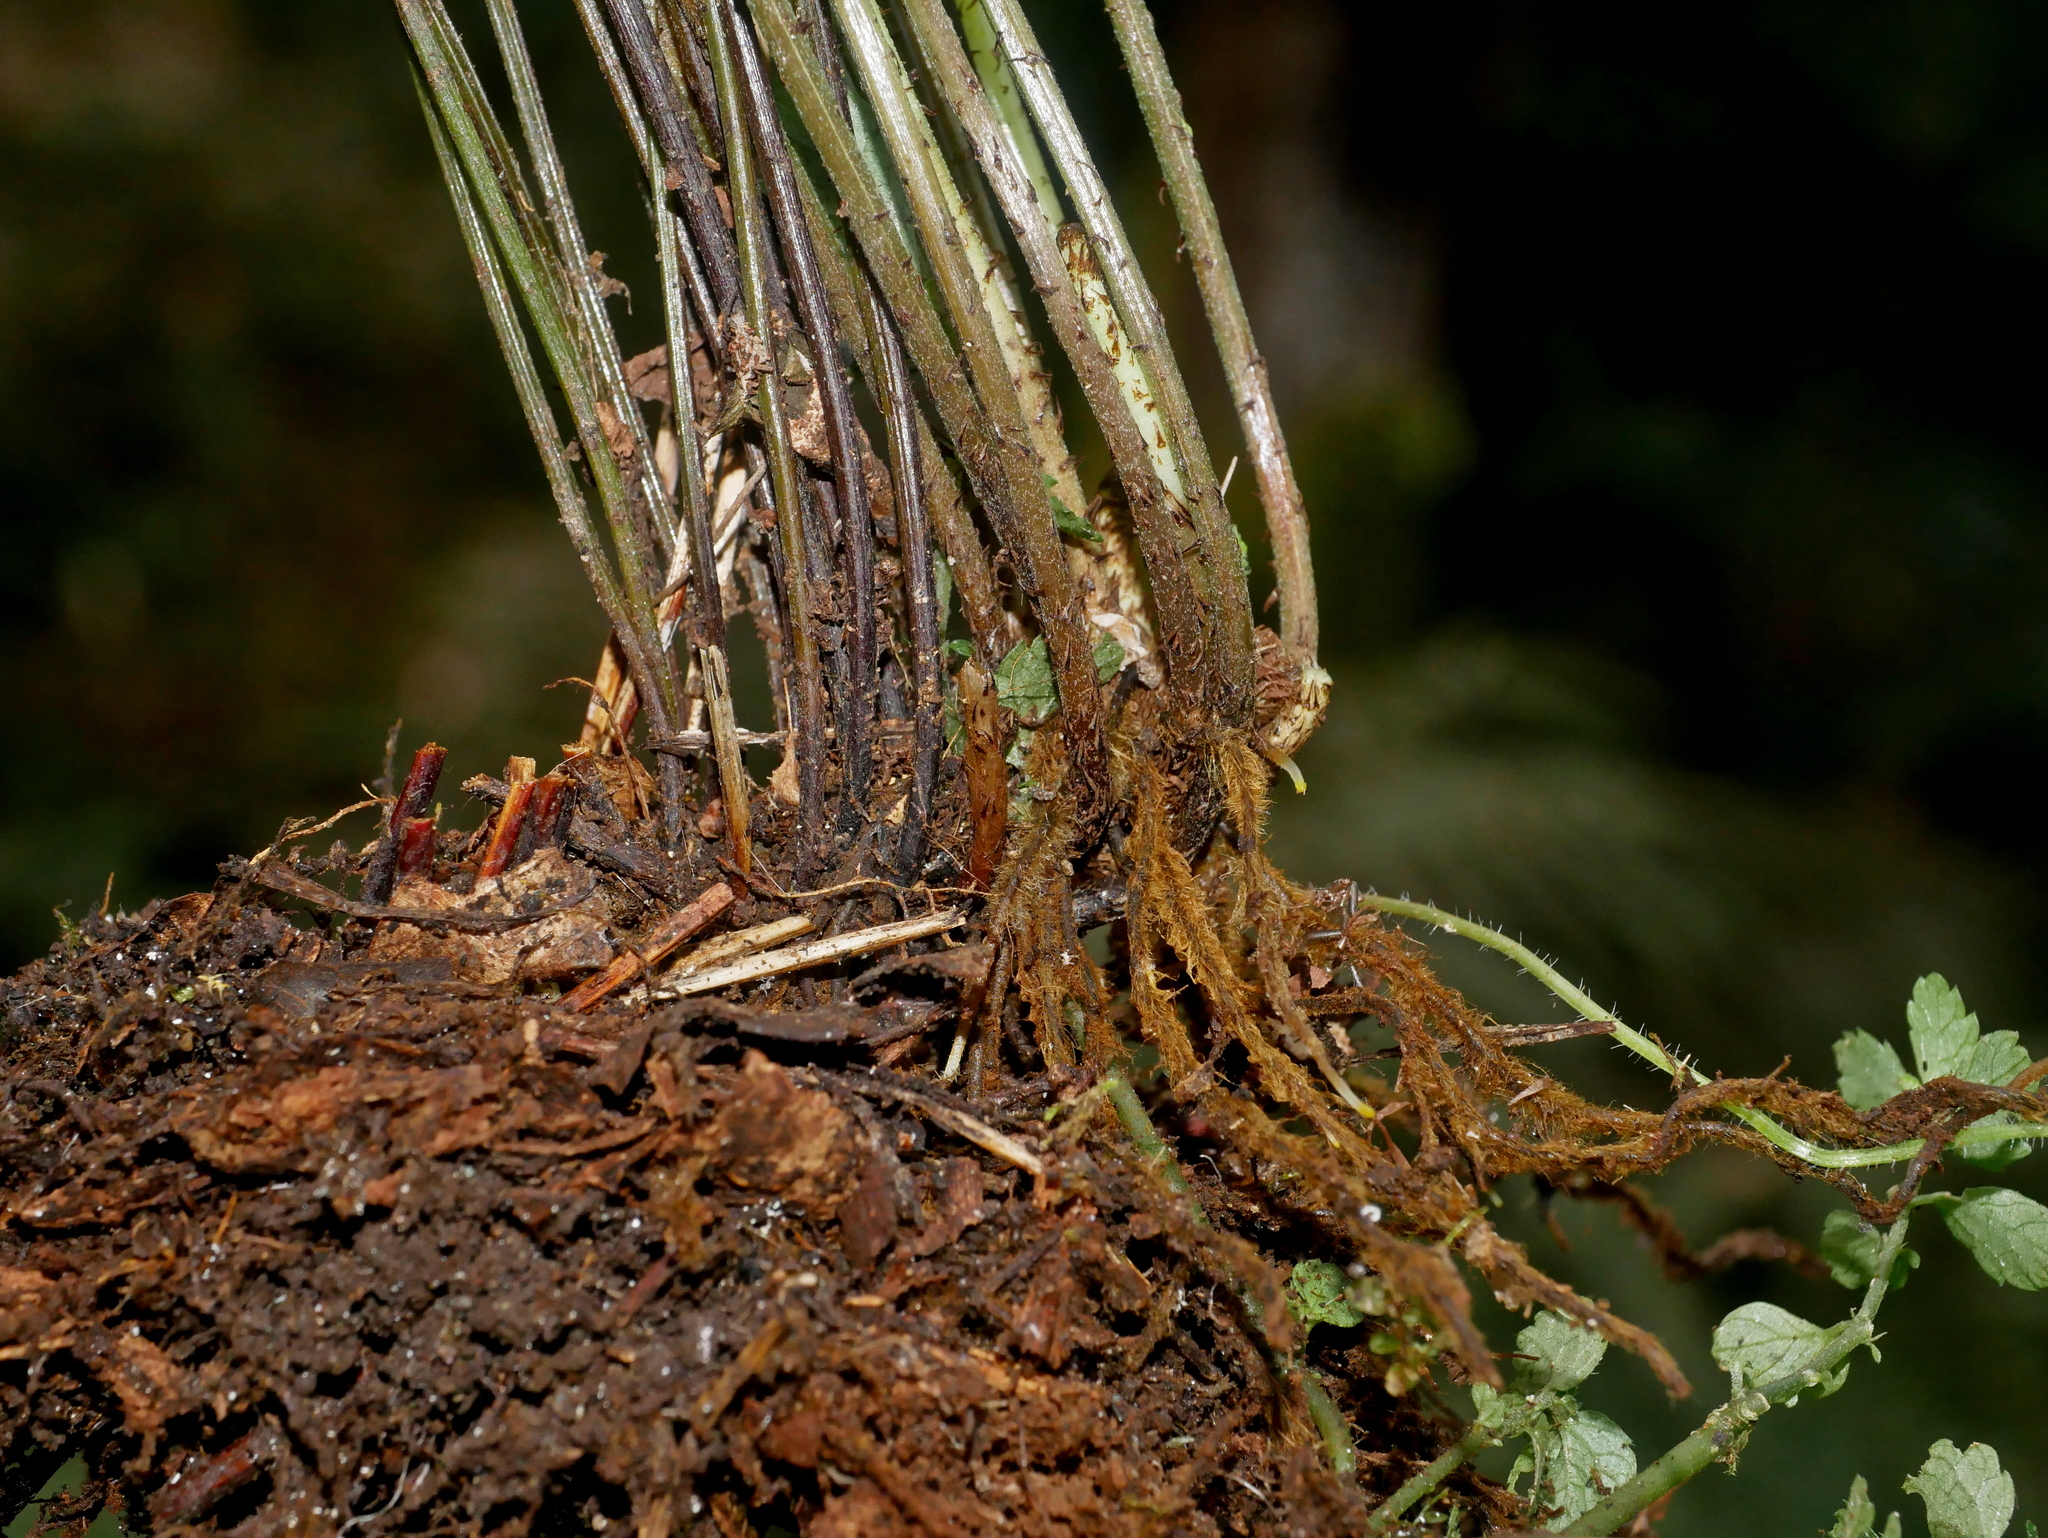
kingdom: Plantae
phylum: Tracheophyta
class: Polypodiopsida
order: Polypodiales
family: Pteridaceae
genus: Pteris
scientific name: Pteris wulaiensis
